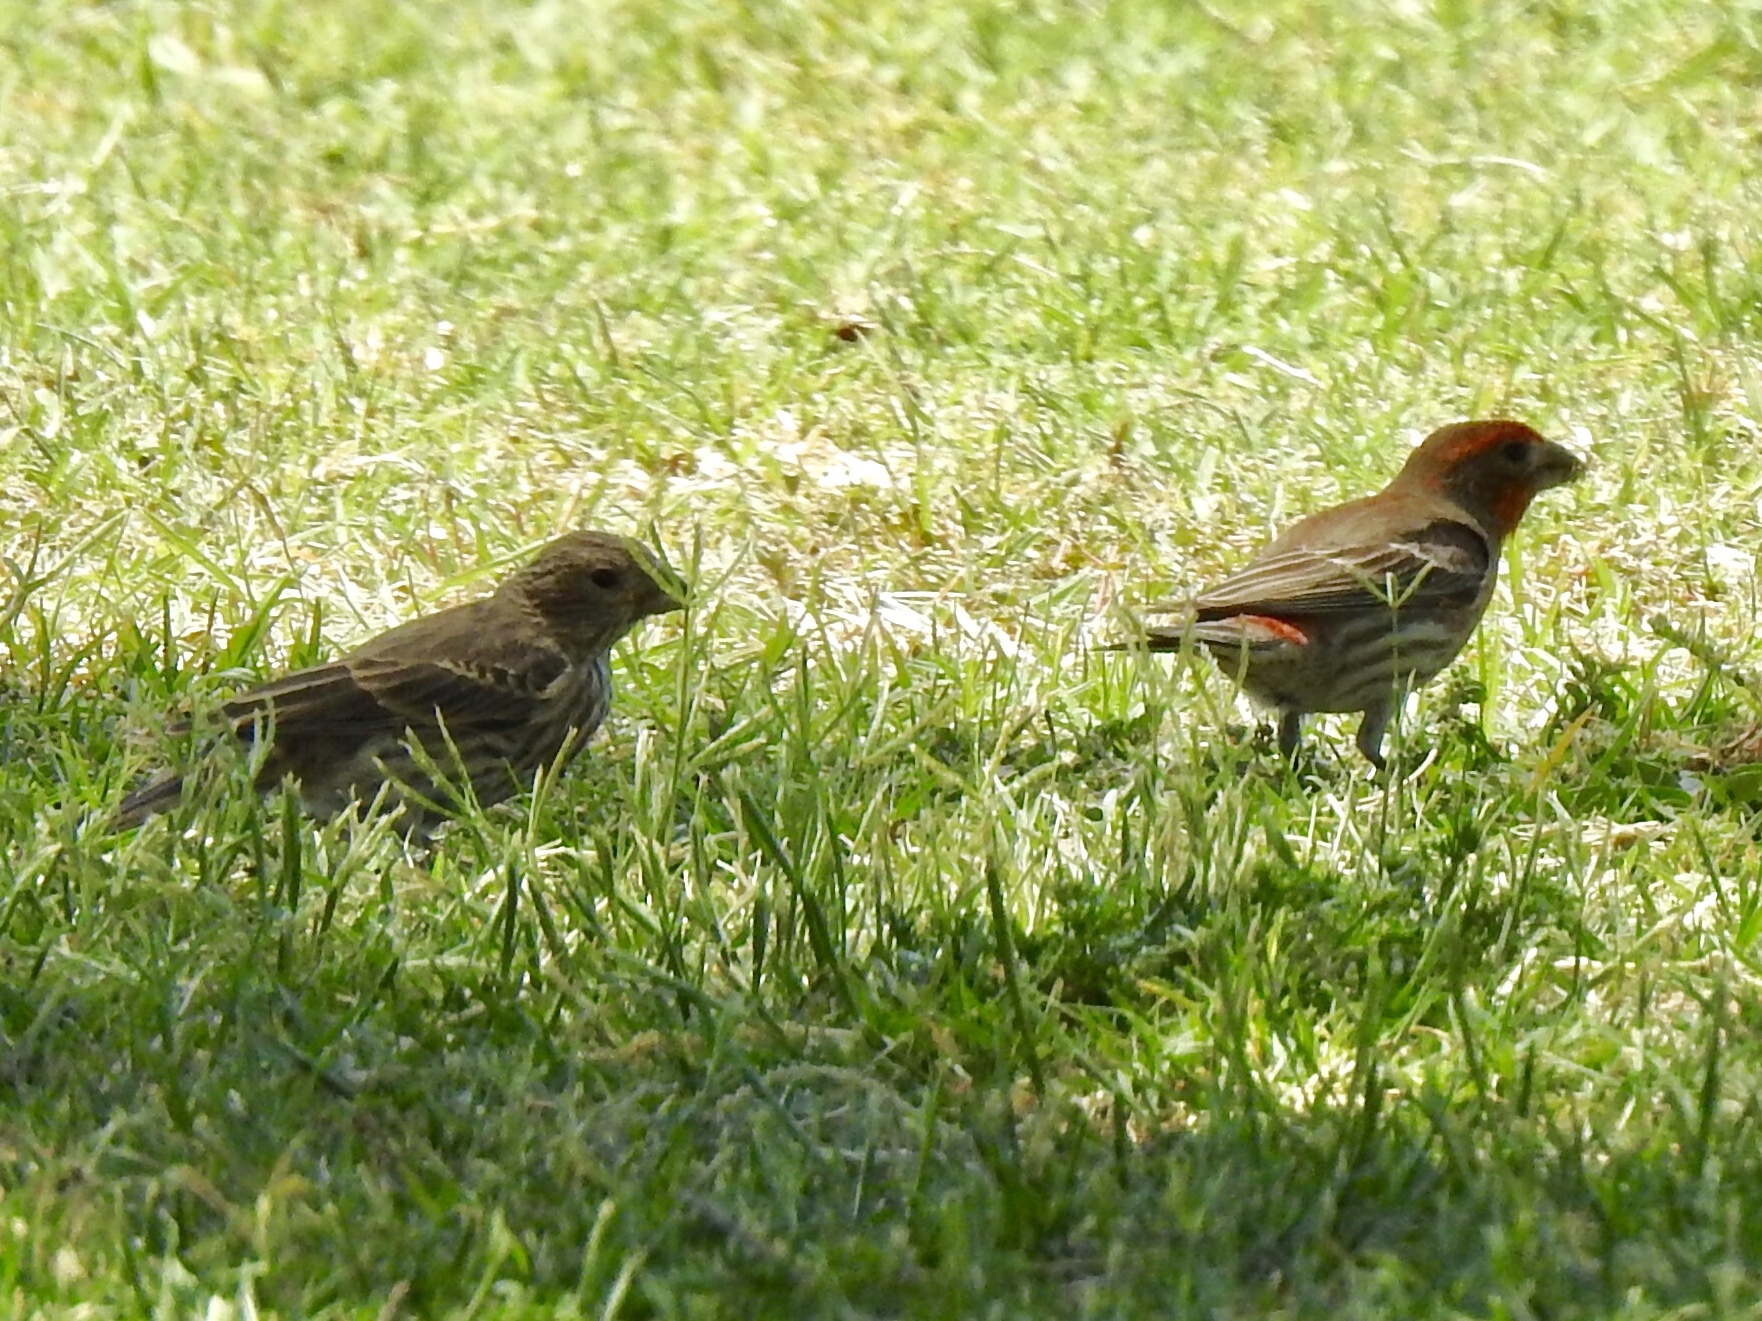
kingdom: Animalia
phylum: Chordata
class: Aves
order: Passeriformes
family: Fringillidae
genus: Haemorhous
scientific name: Haemorhous mexicanus
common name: House finch
